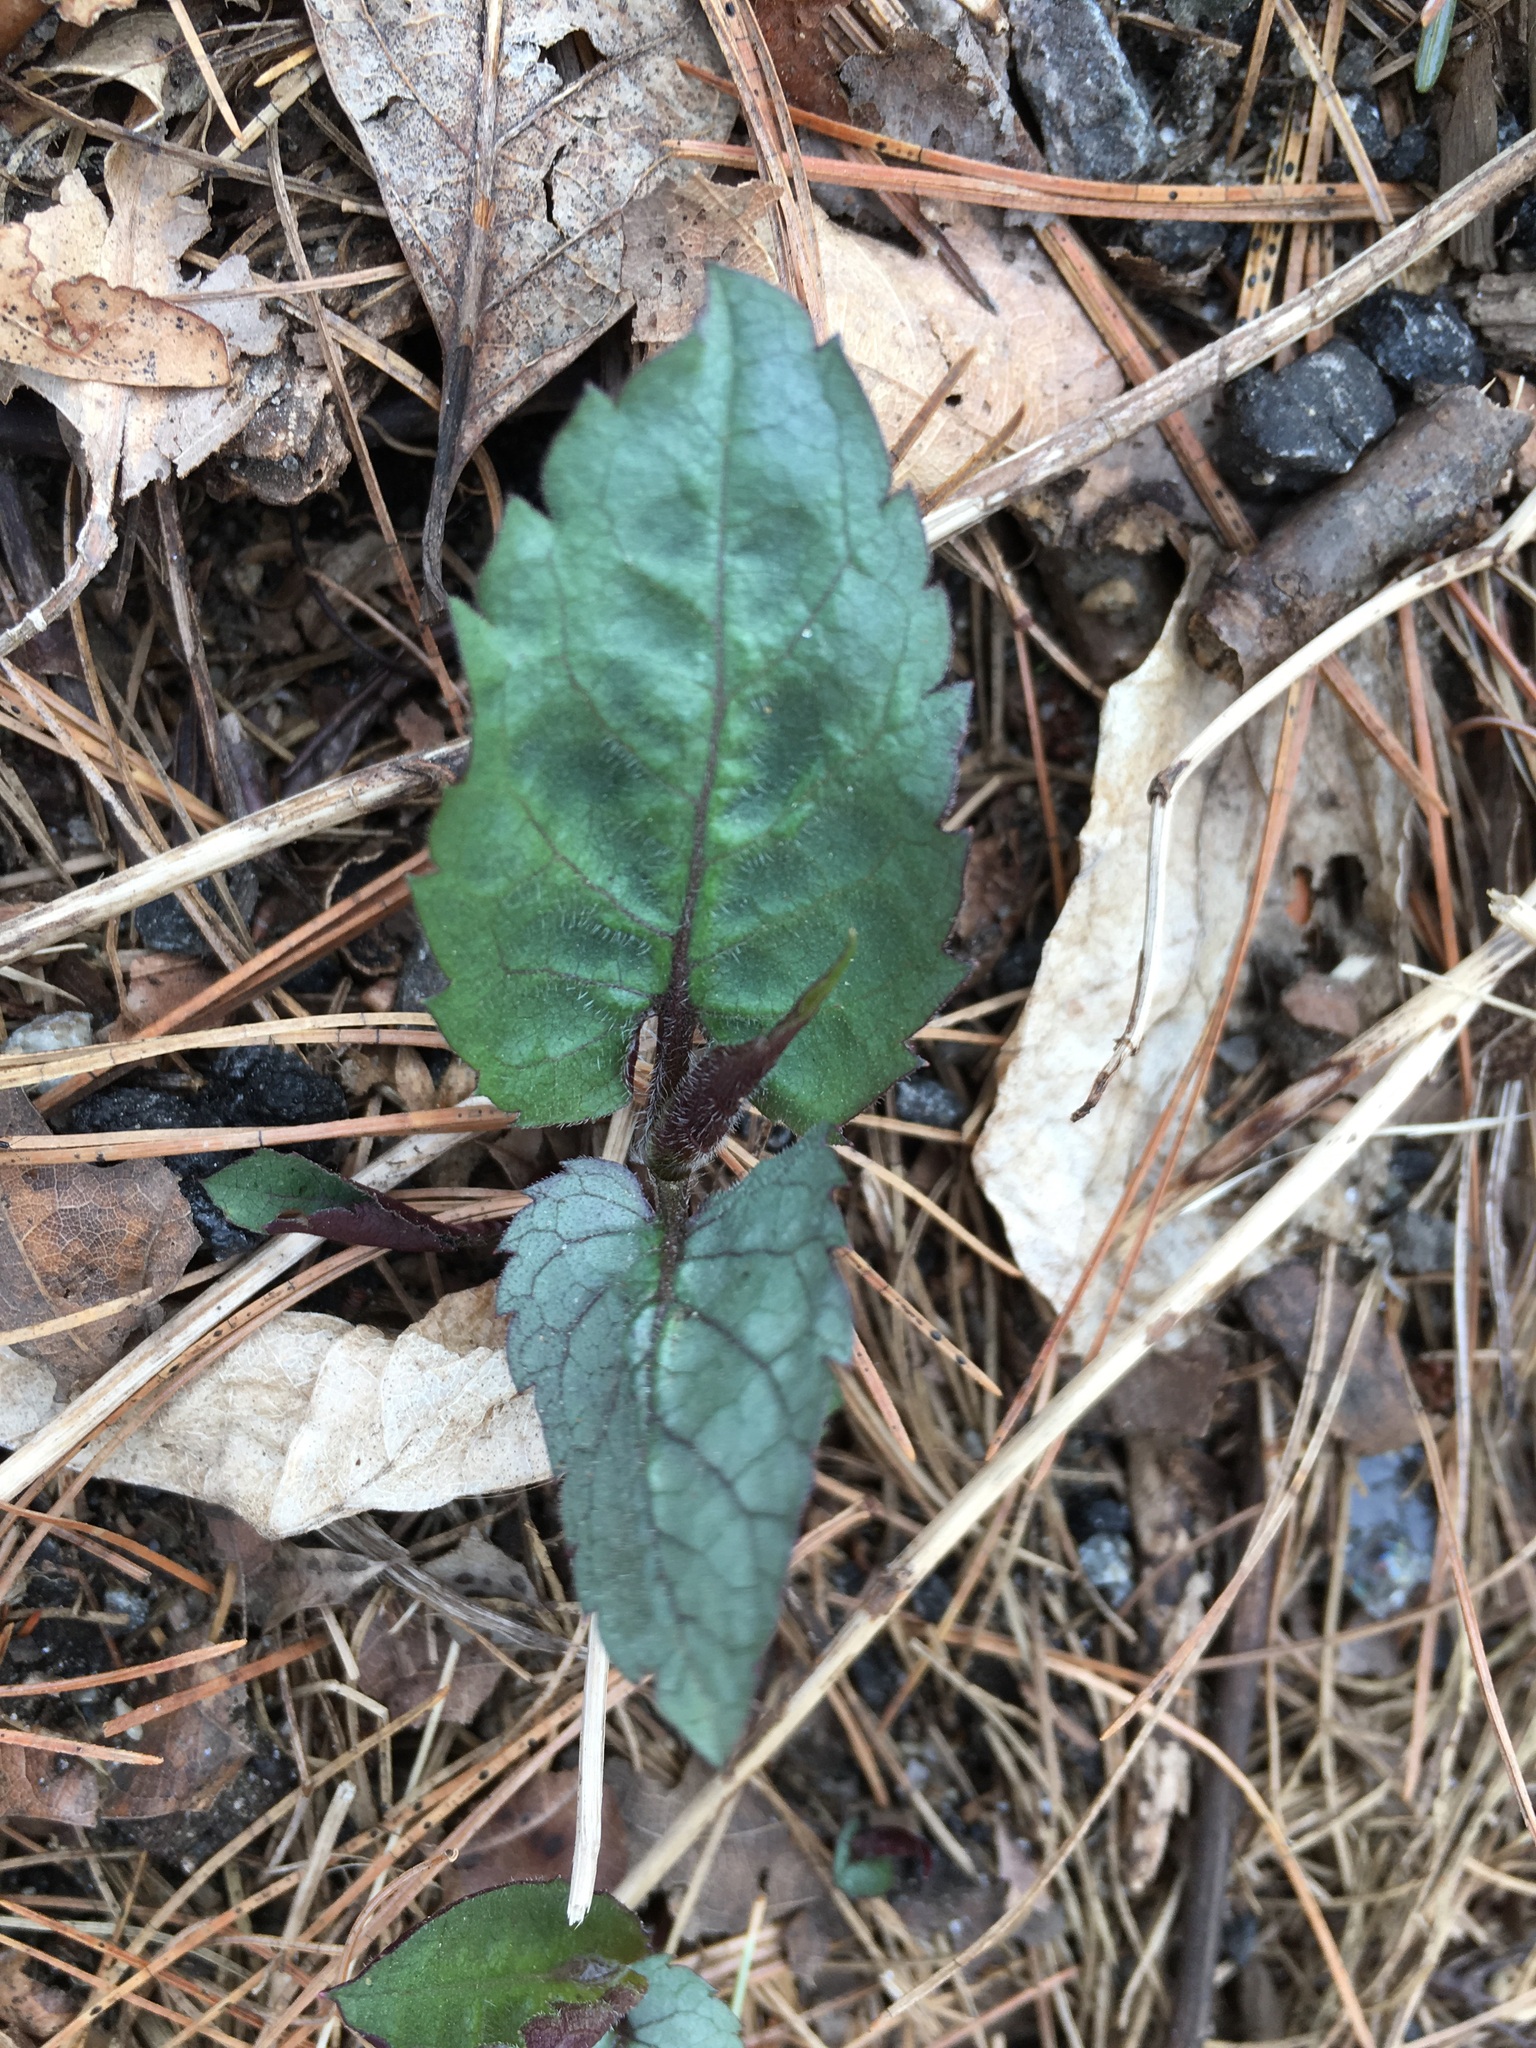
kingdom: Plantae
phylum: Tracheophyta
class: Magnoliopsida
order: Asterales
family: Asteraceae
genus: Symphyotrichum
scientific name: Symphyotrichum cordifolium
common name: Beeweed
